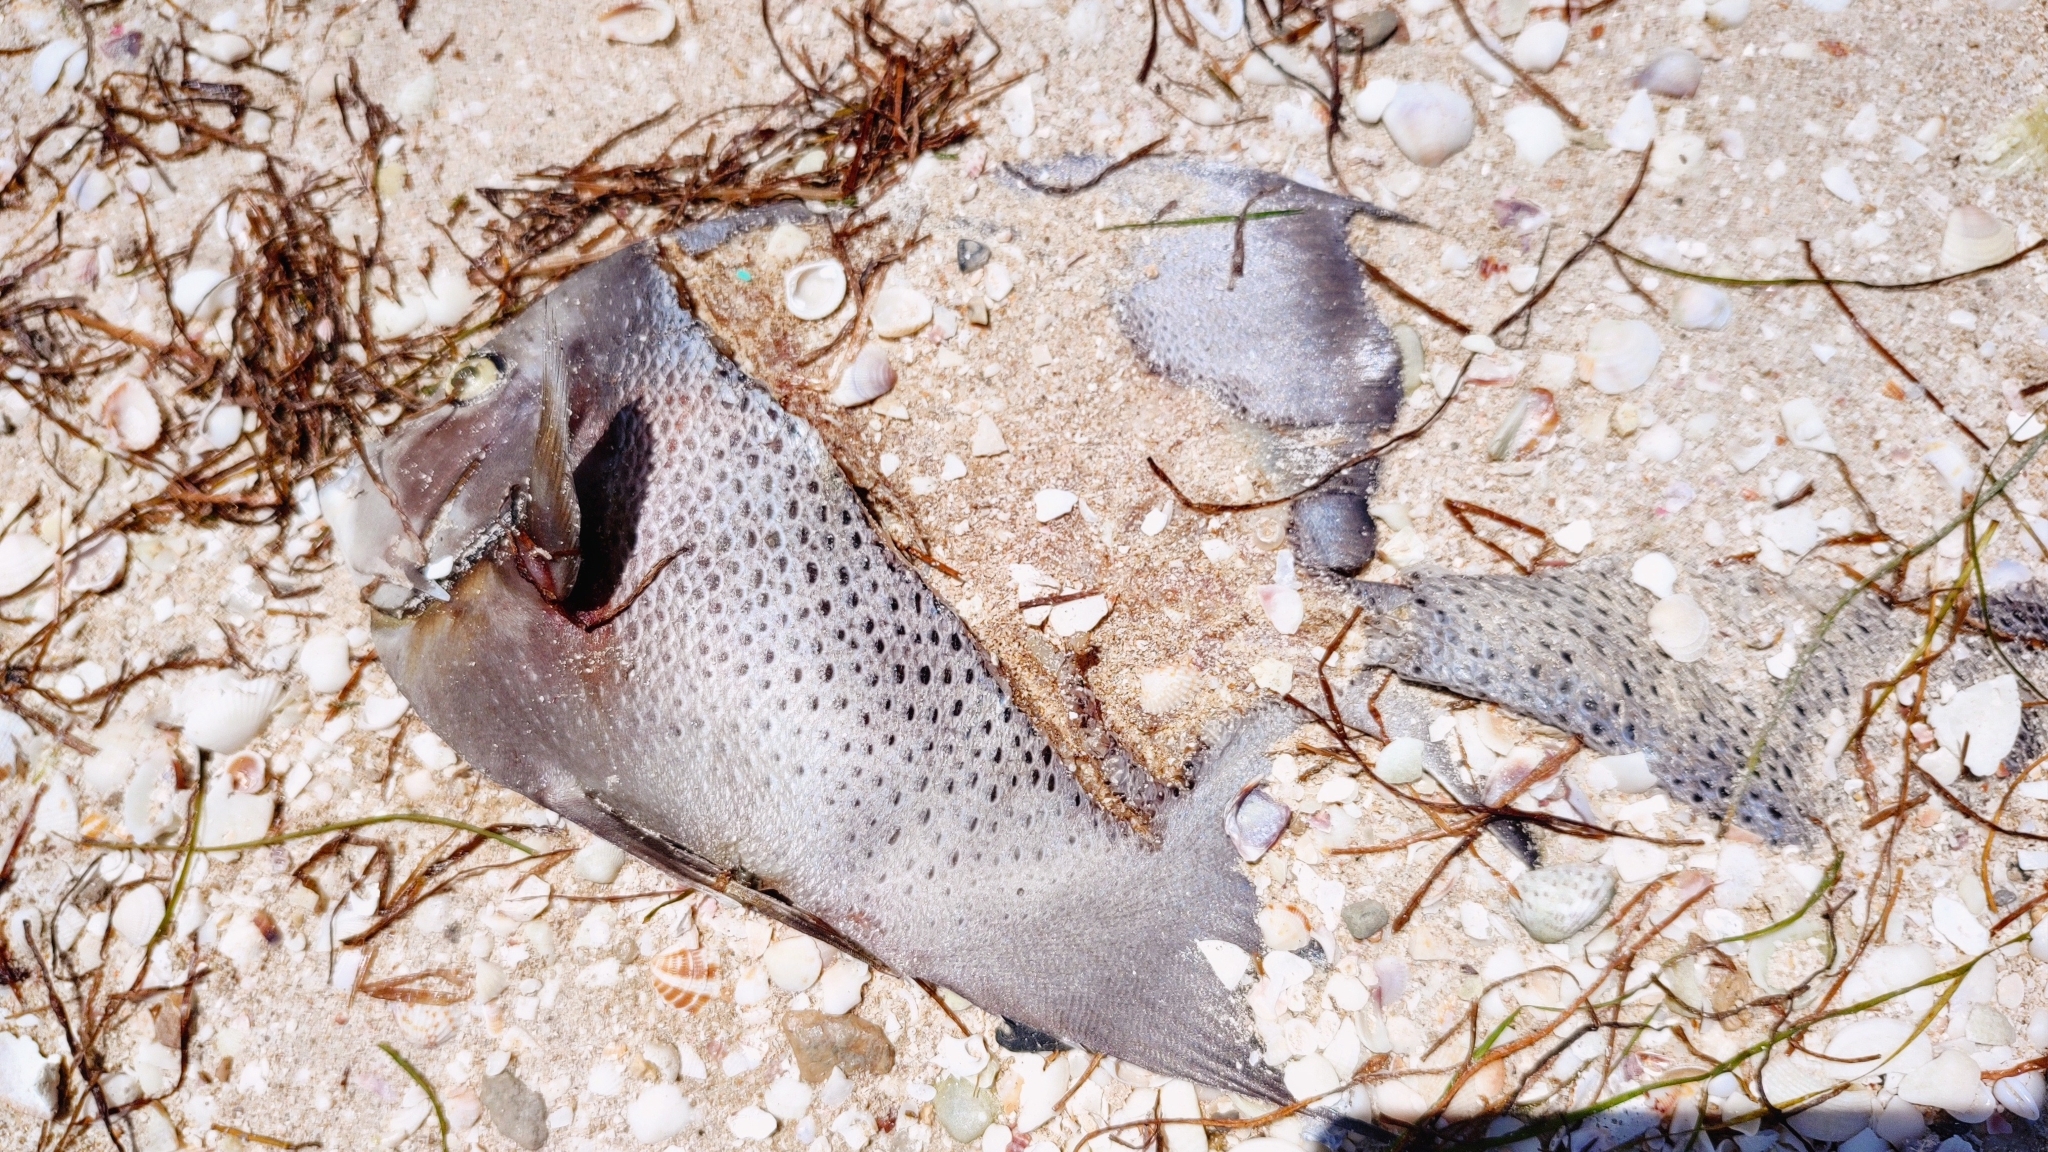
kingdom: Animalia
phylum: Chordata
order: Perciformes
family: Pomacanthidae
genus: Pomacanthus
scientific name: Pomacanthus arcuatus
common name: Gray angelfish
